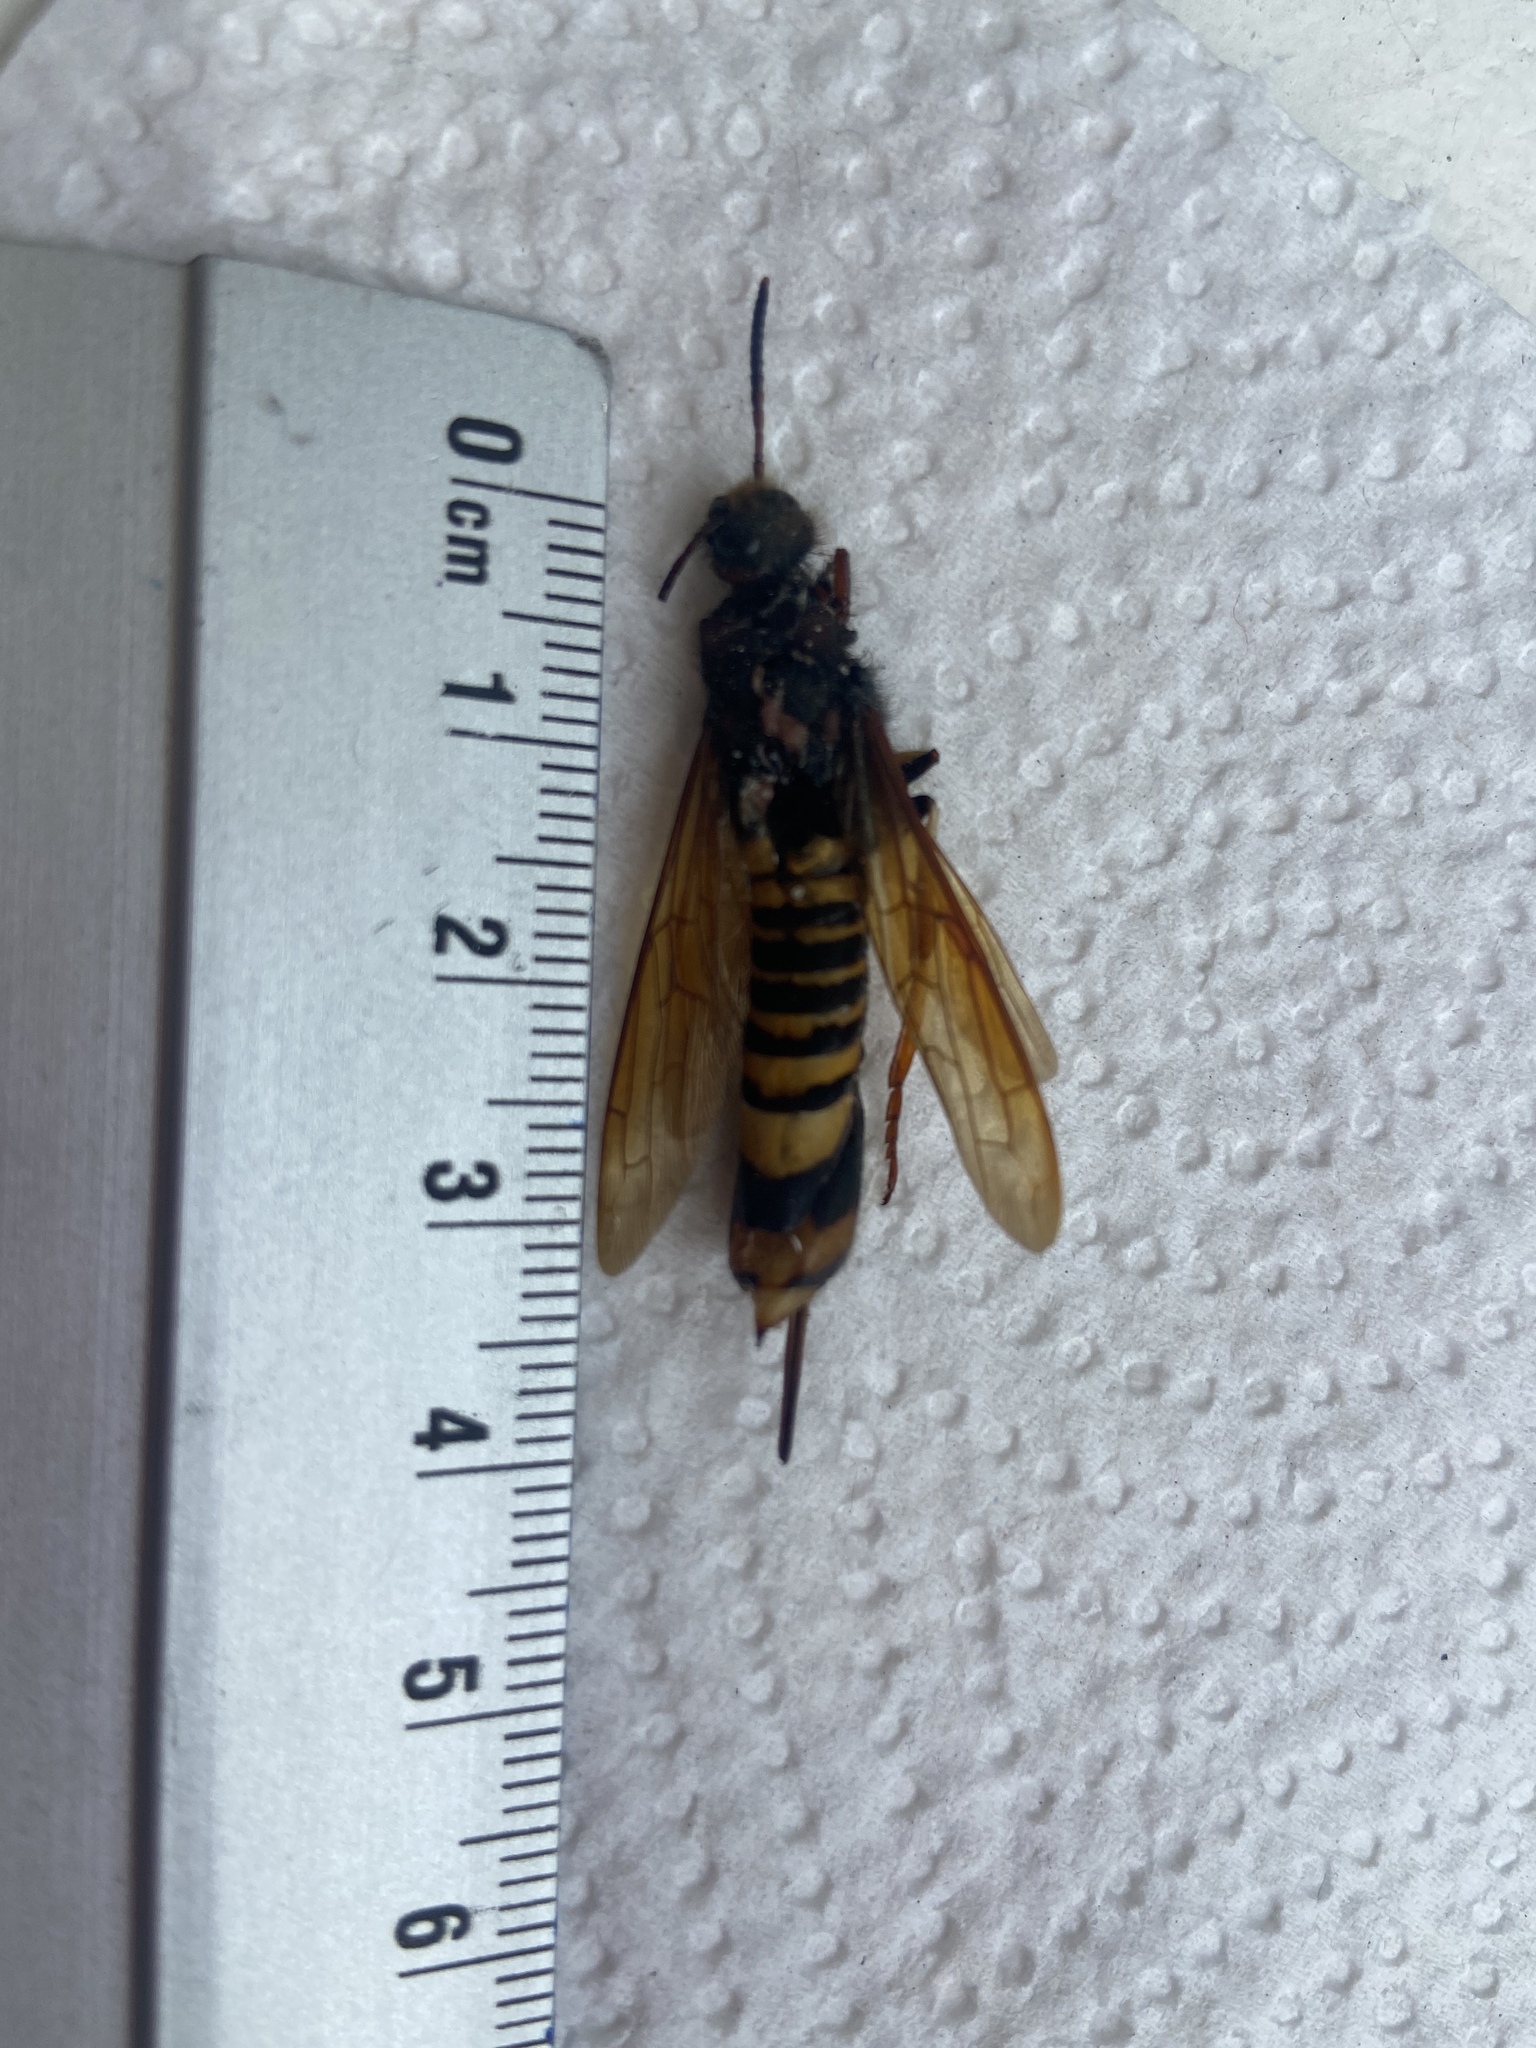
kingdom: Animalia
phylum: Arthropoda
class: Insecta
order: Hymenoptera
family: Siricidae
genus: Tremex
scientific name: Tremex fuscicornis
